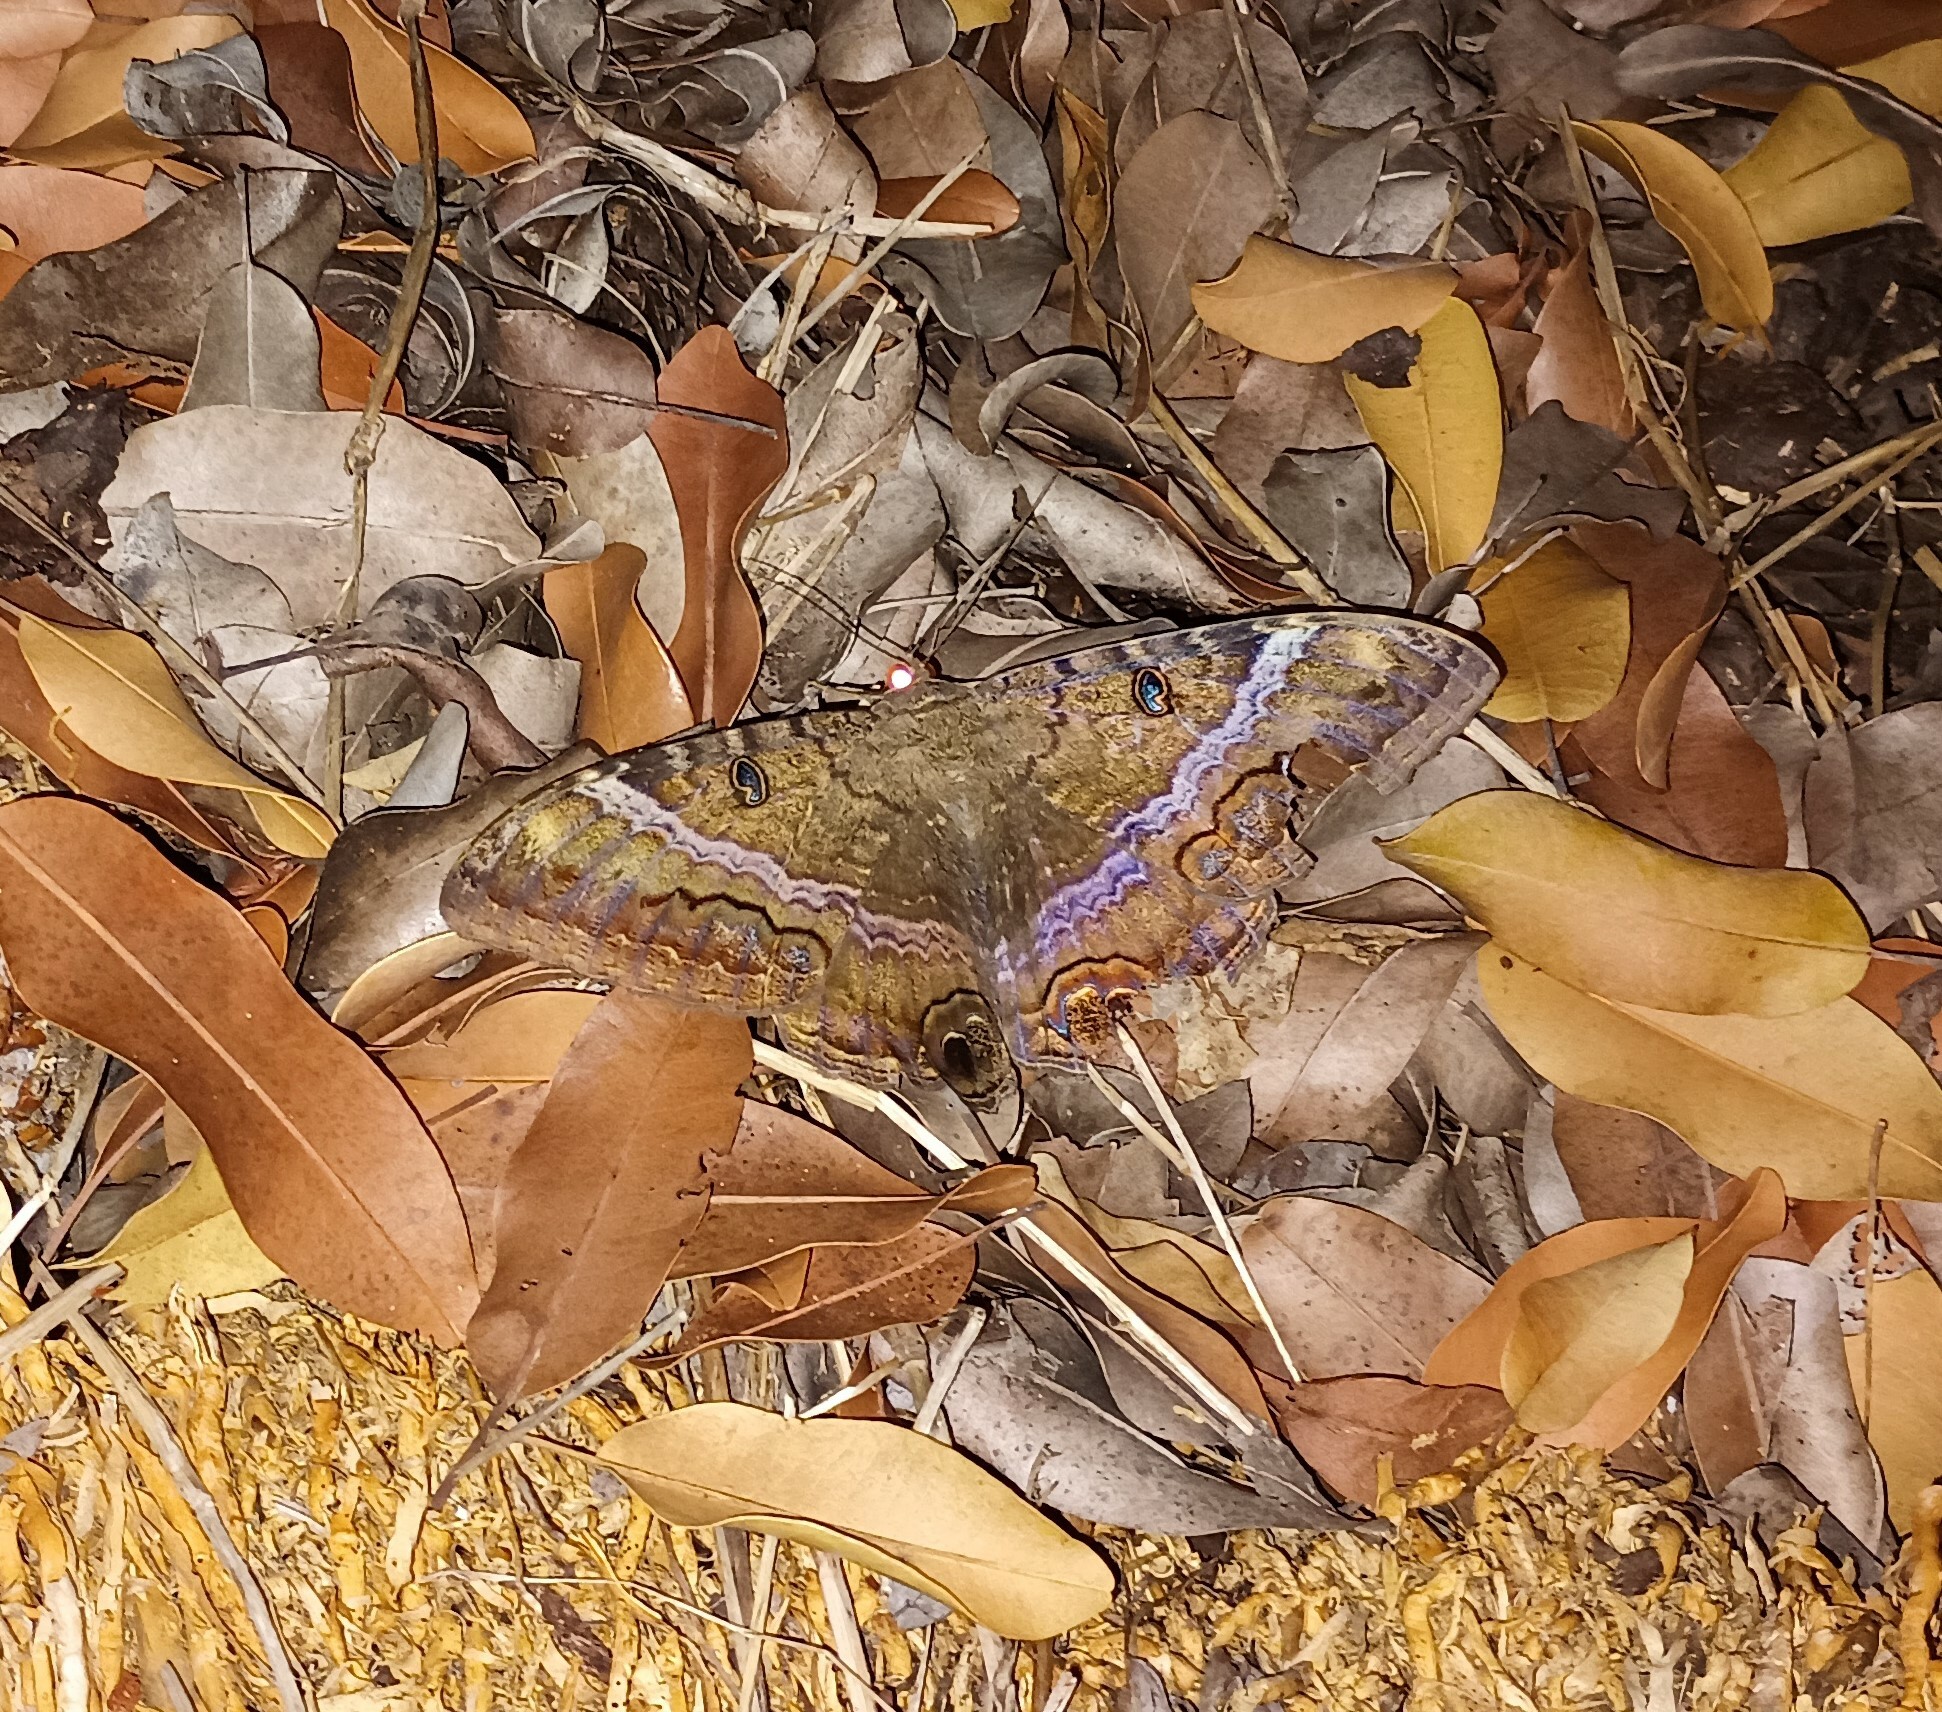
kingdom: Animalia
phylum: Arthropoda
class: Insecta
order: Lepidoptera
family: Erebidae
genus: Ascalapha
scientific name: Ascalapha odorata
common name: Black witch
